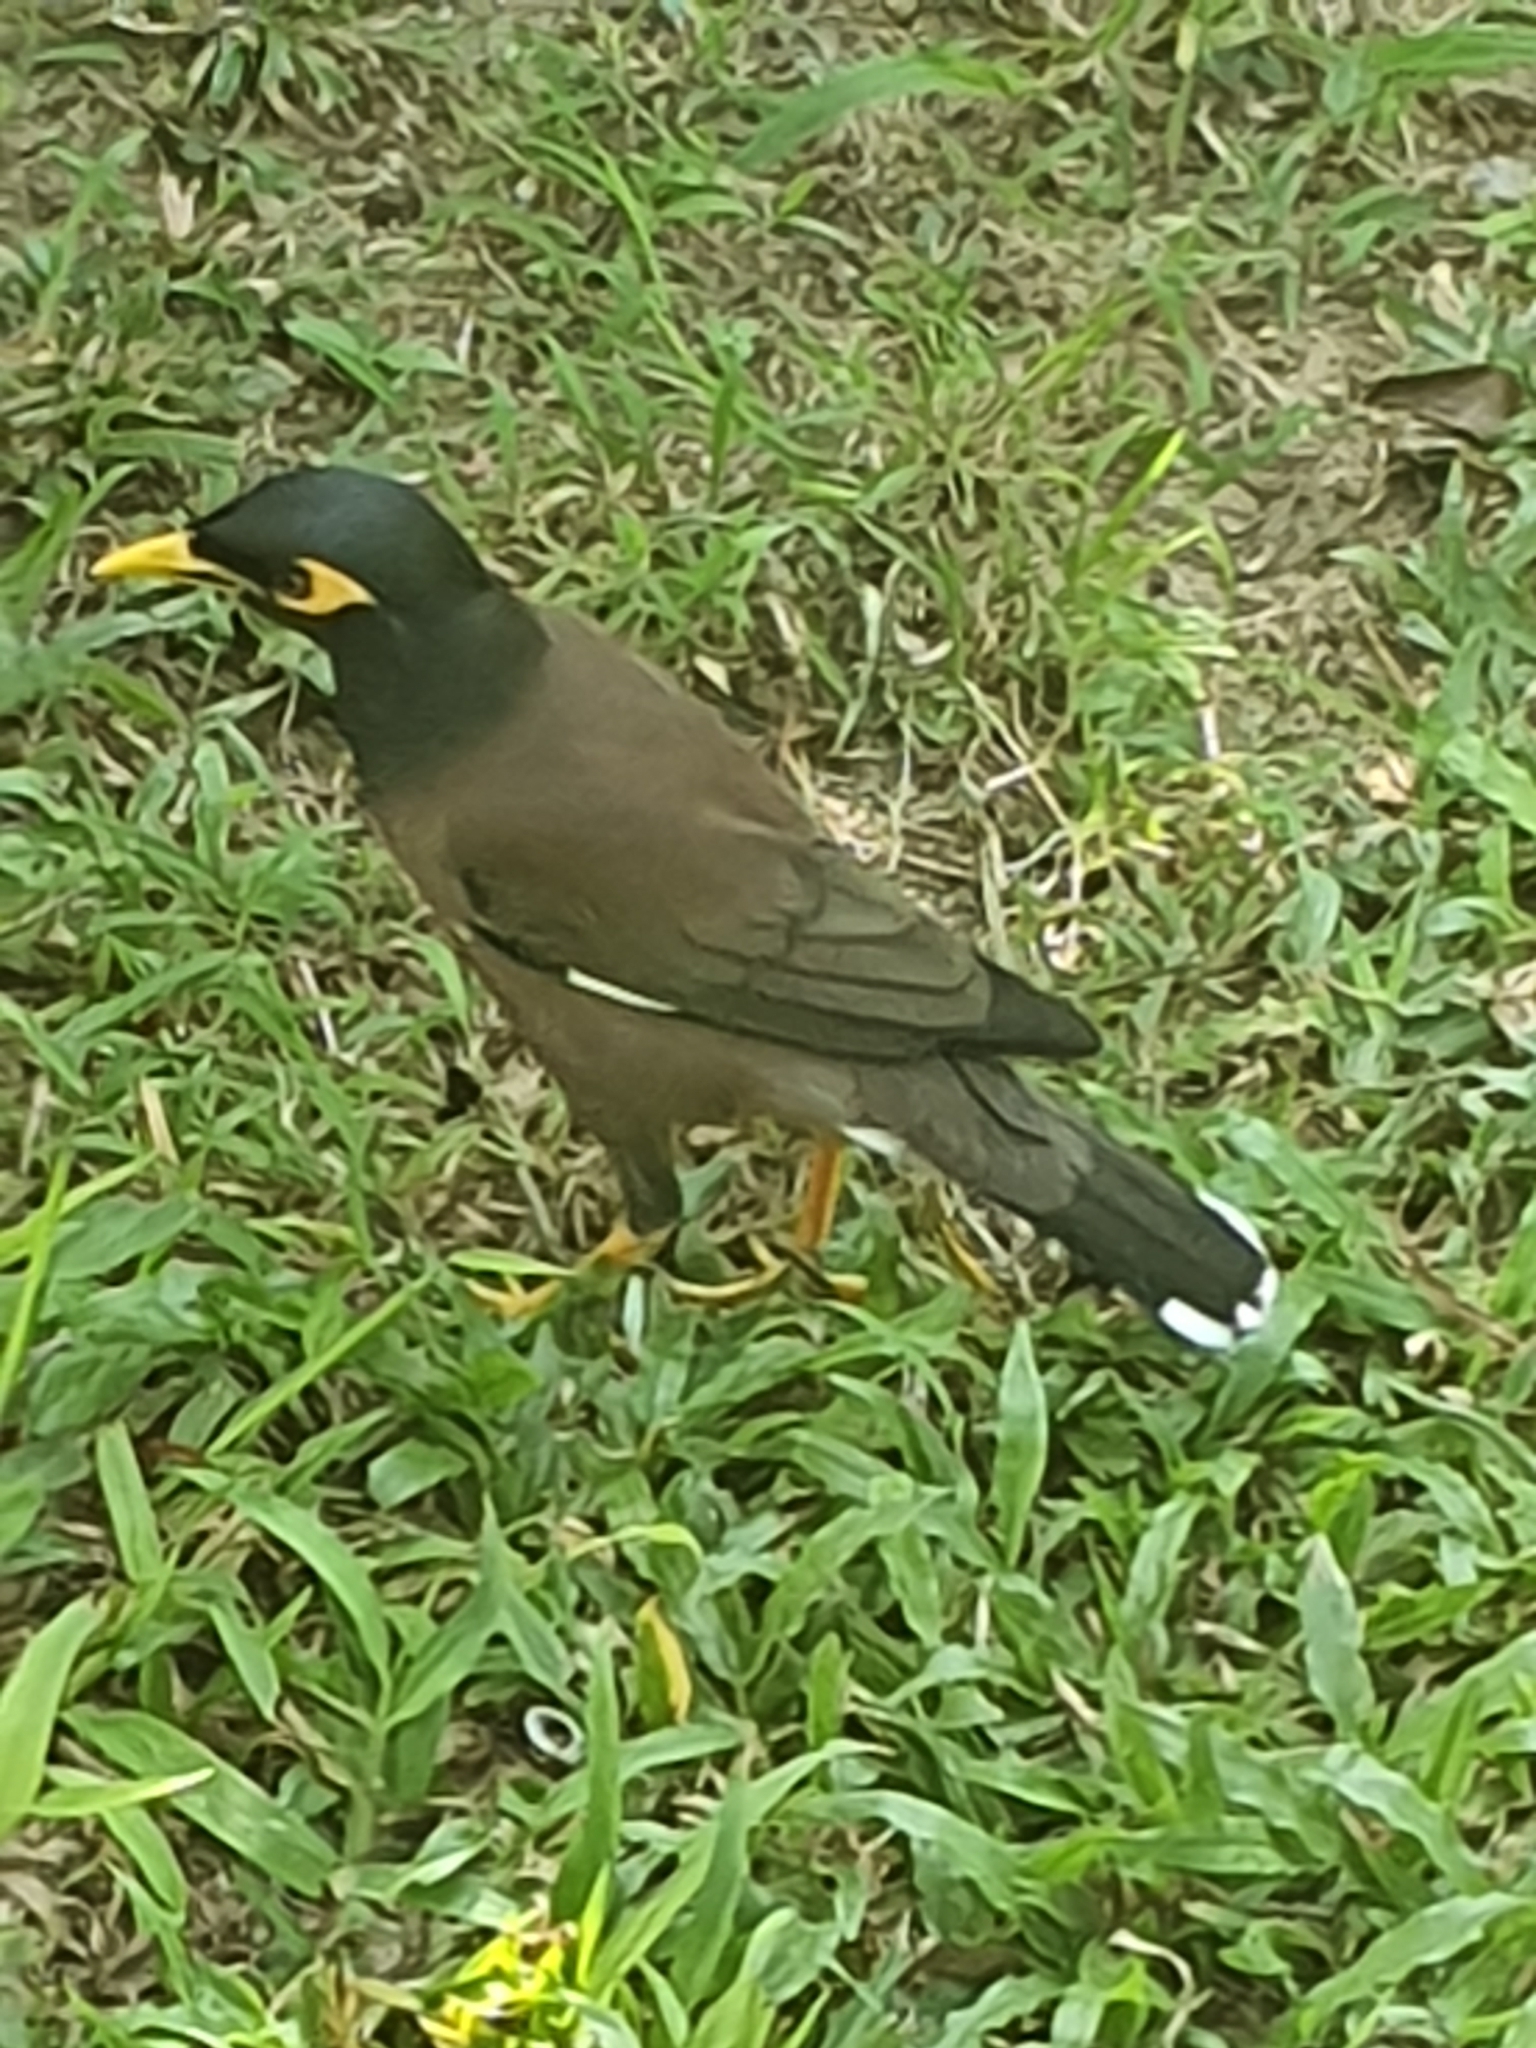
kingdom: Animalia
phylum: Chordata
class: Aves
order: Passeriformes
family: Sturnidae
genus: Acridotheres
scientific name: Acridotheres tristis
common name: Common myna
